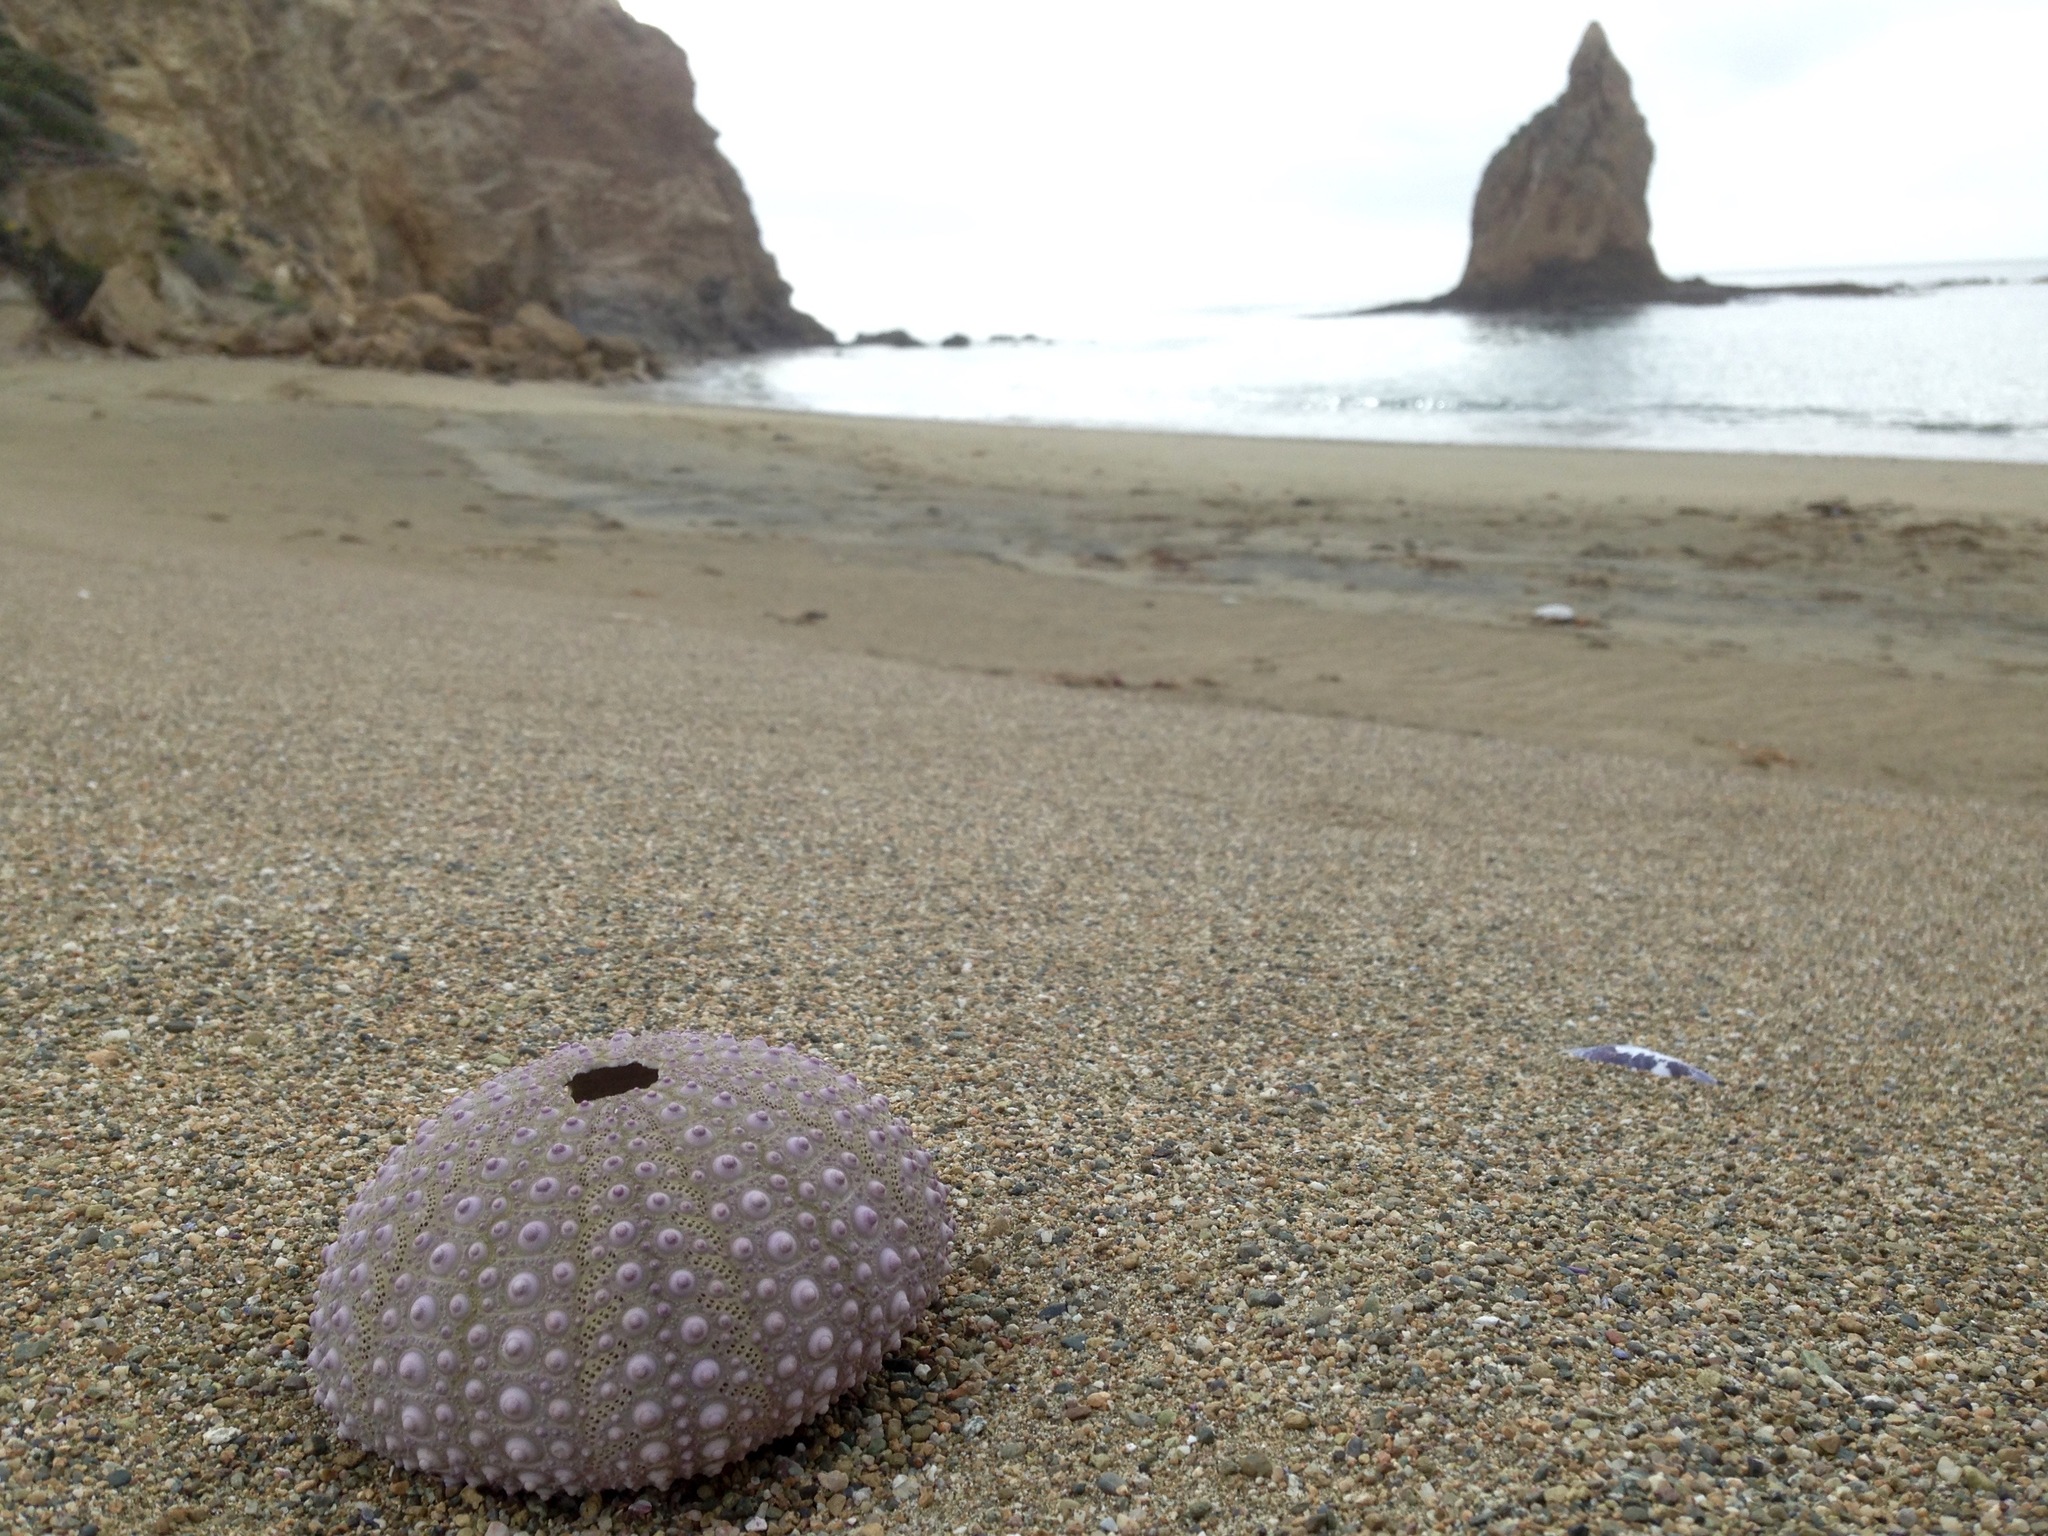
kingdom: Animalia
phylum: Echinodermata
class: Echinoidea
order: Camarodonta
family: Strongylocentrotidae
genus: Strongylocentrotus
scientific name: Strongylocentrotus purpuratus
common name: Purple sea urchin
